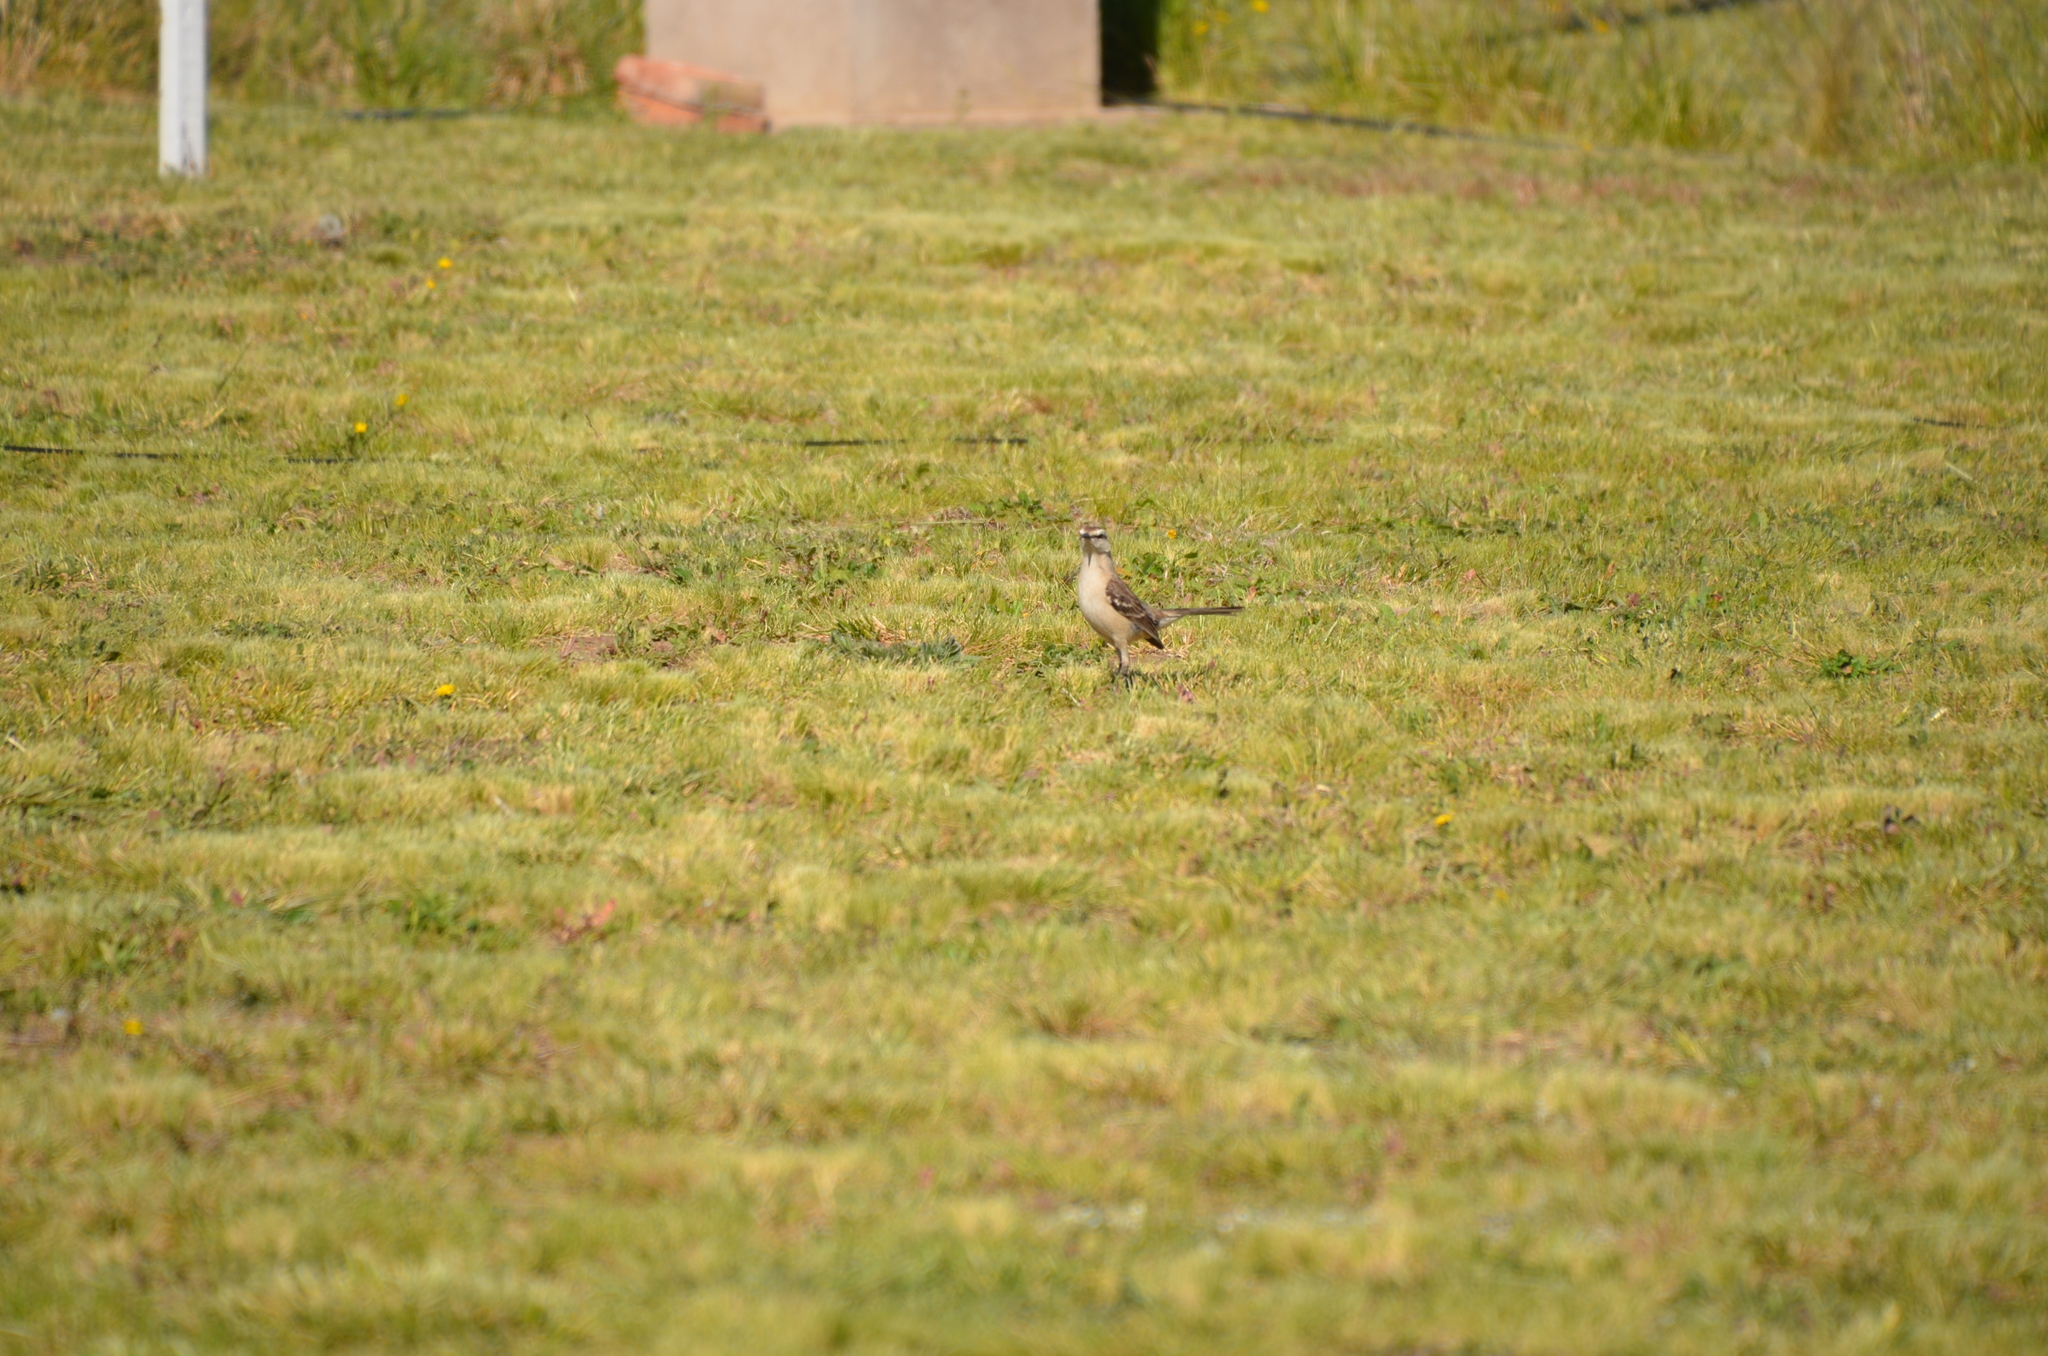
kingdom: Animalia
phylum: Chordata
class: Aves
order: Passeriformes
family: Mimidae
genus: Mimus
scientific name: Mimus saturninus
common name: Chalk-browed mockingbird
